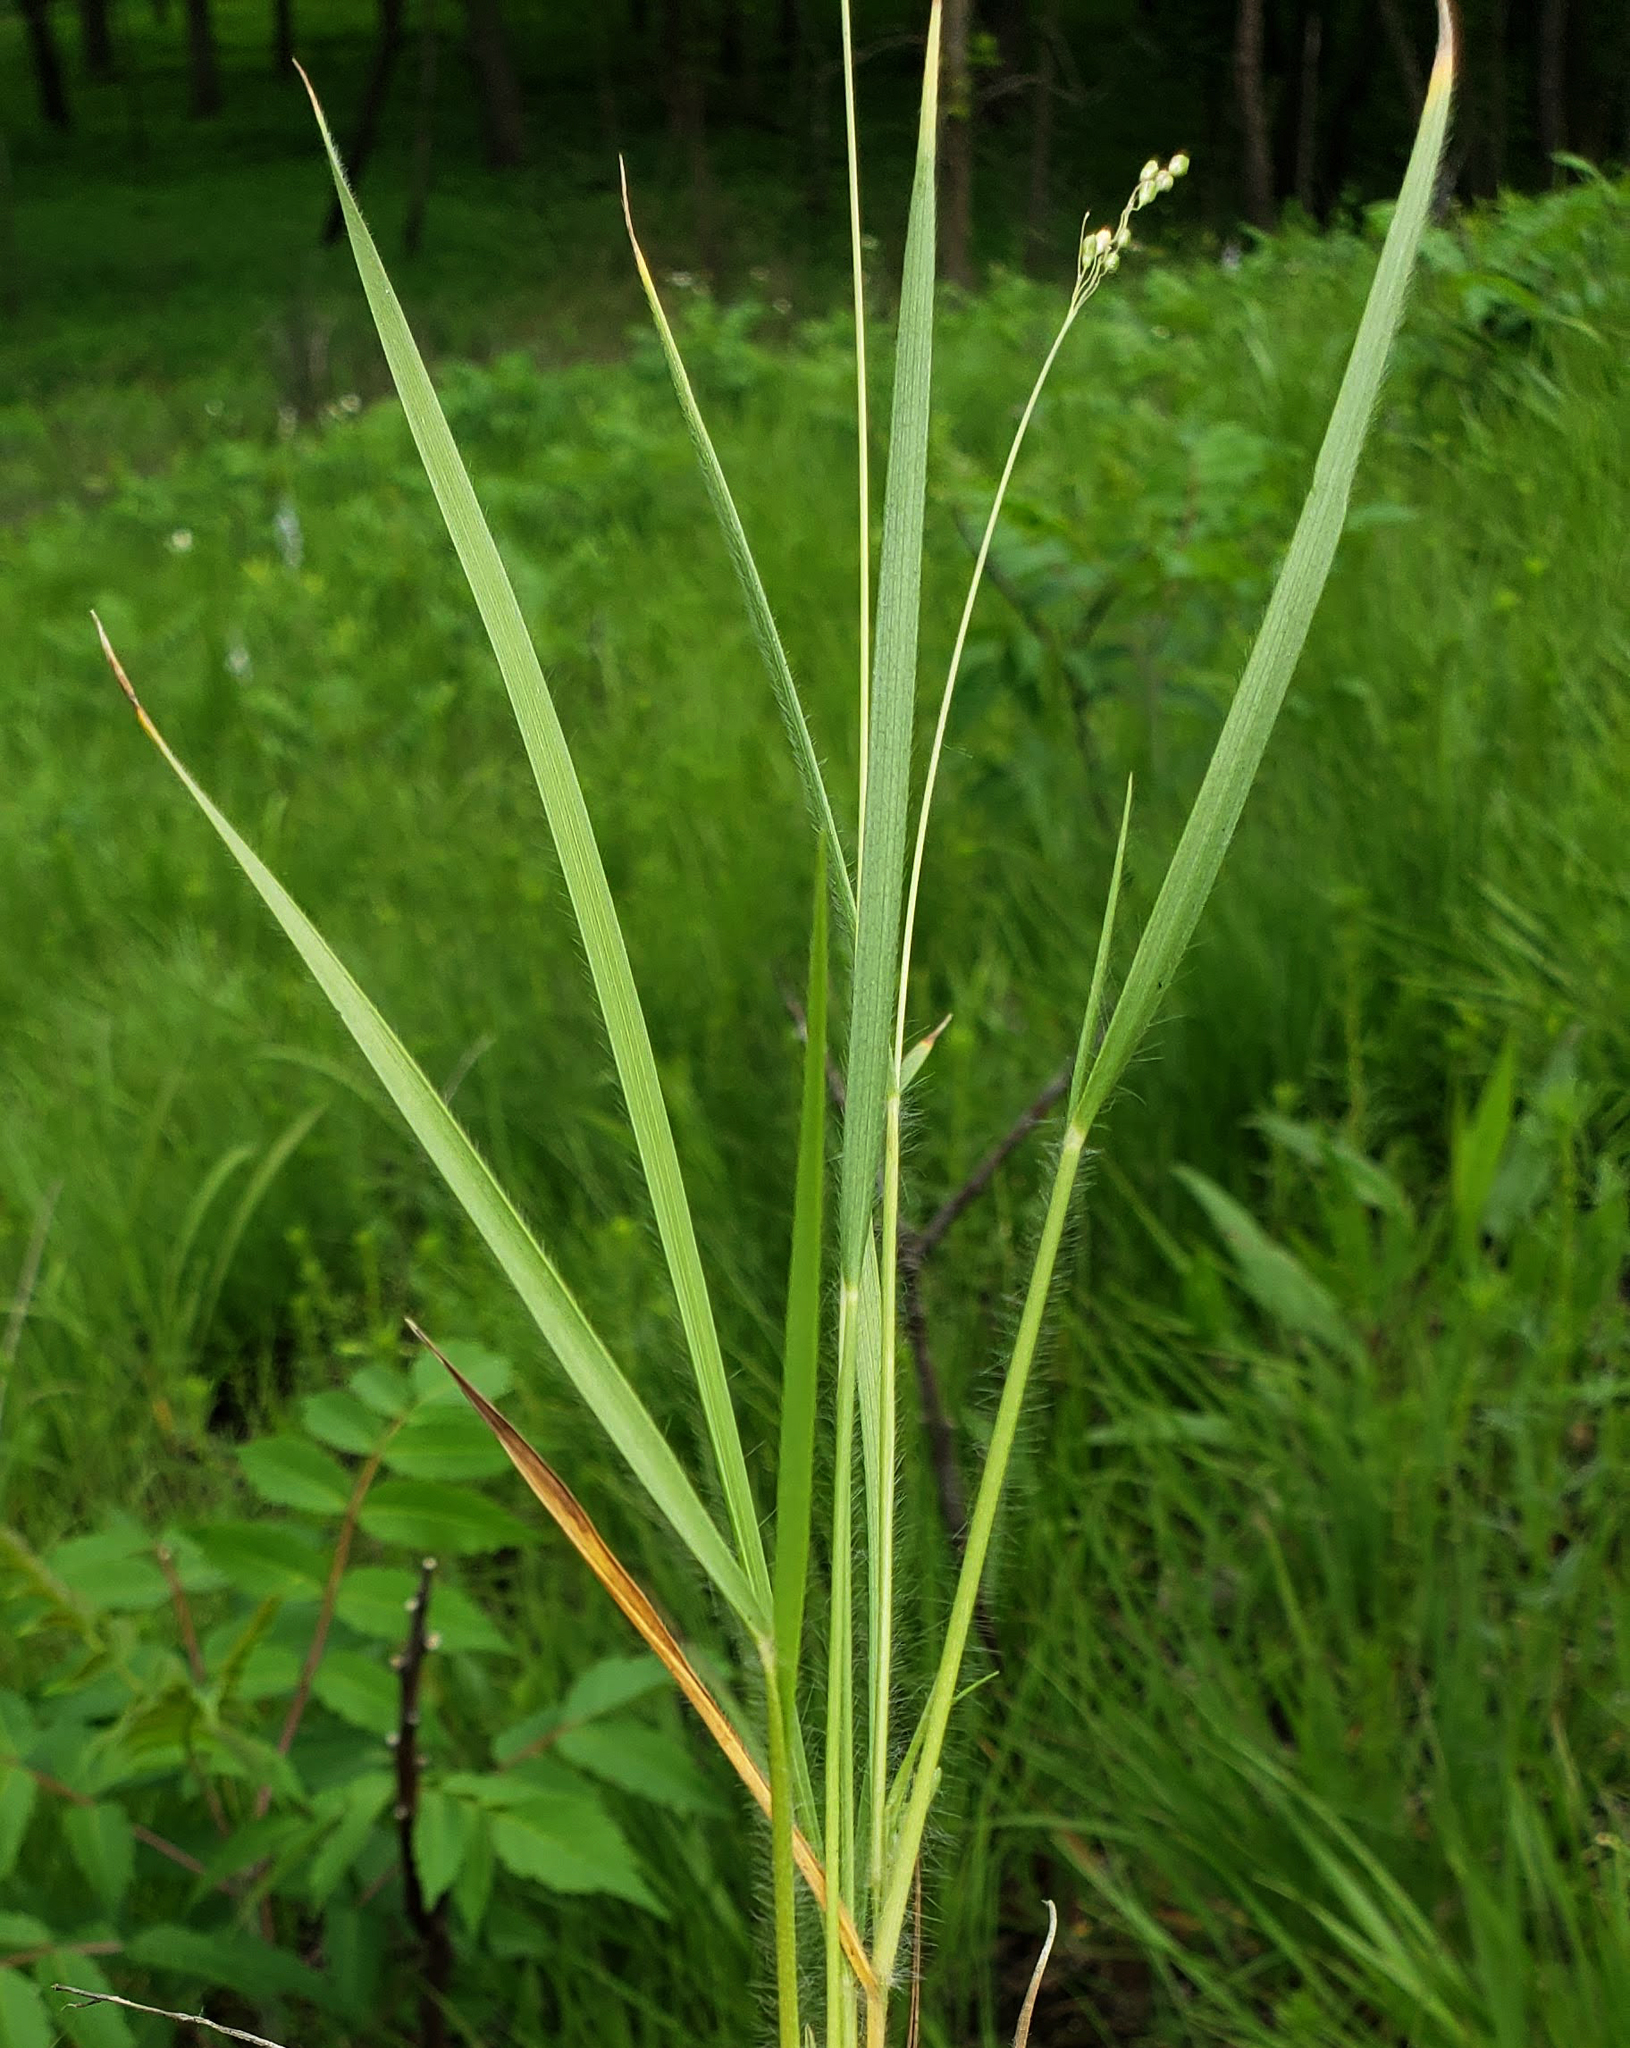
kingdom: Plantae
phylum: Tracheophyta
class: Liliopsida
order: Poales
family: Poaceae
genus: Dichanthelium
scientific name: Dichanthelium depauperatum
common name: Depauperate panicgrass
